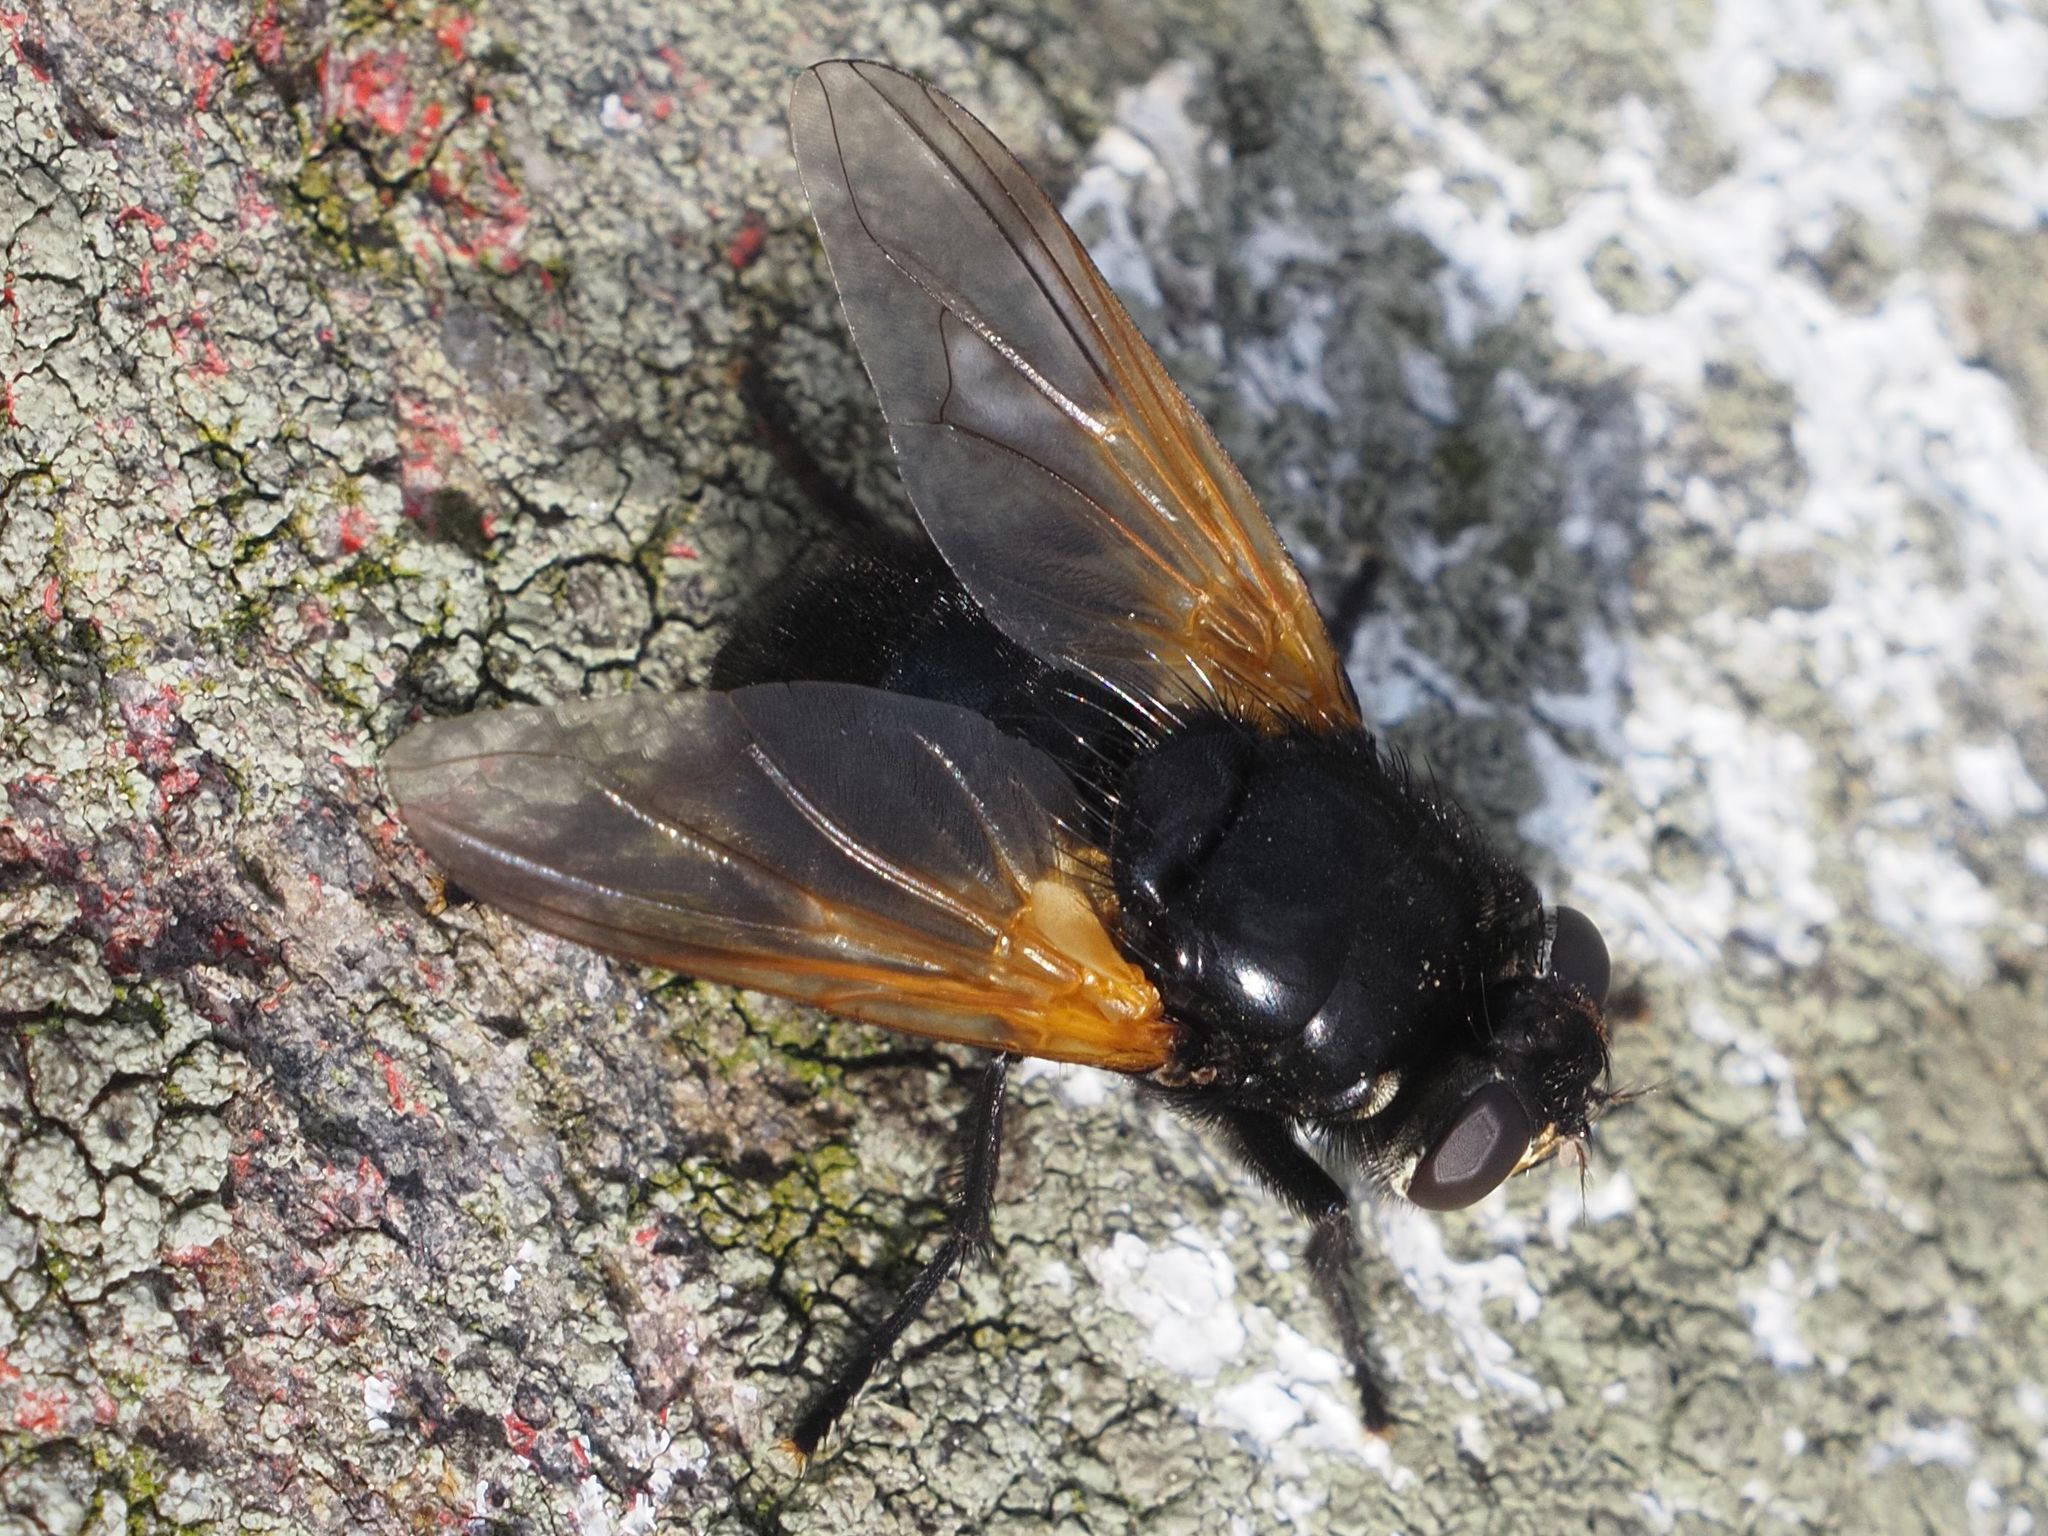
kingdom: Animalia
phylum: Arthropoda
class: Insecta
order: Diptera
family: Muscidae
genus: Mesembrina
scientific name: Mesembrina meridiana
